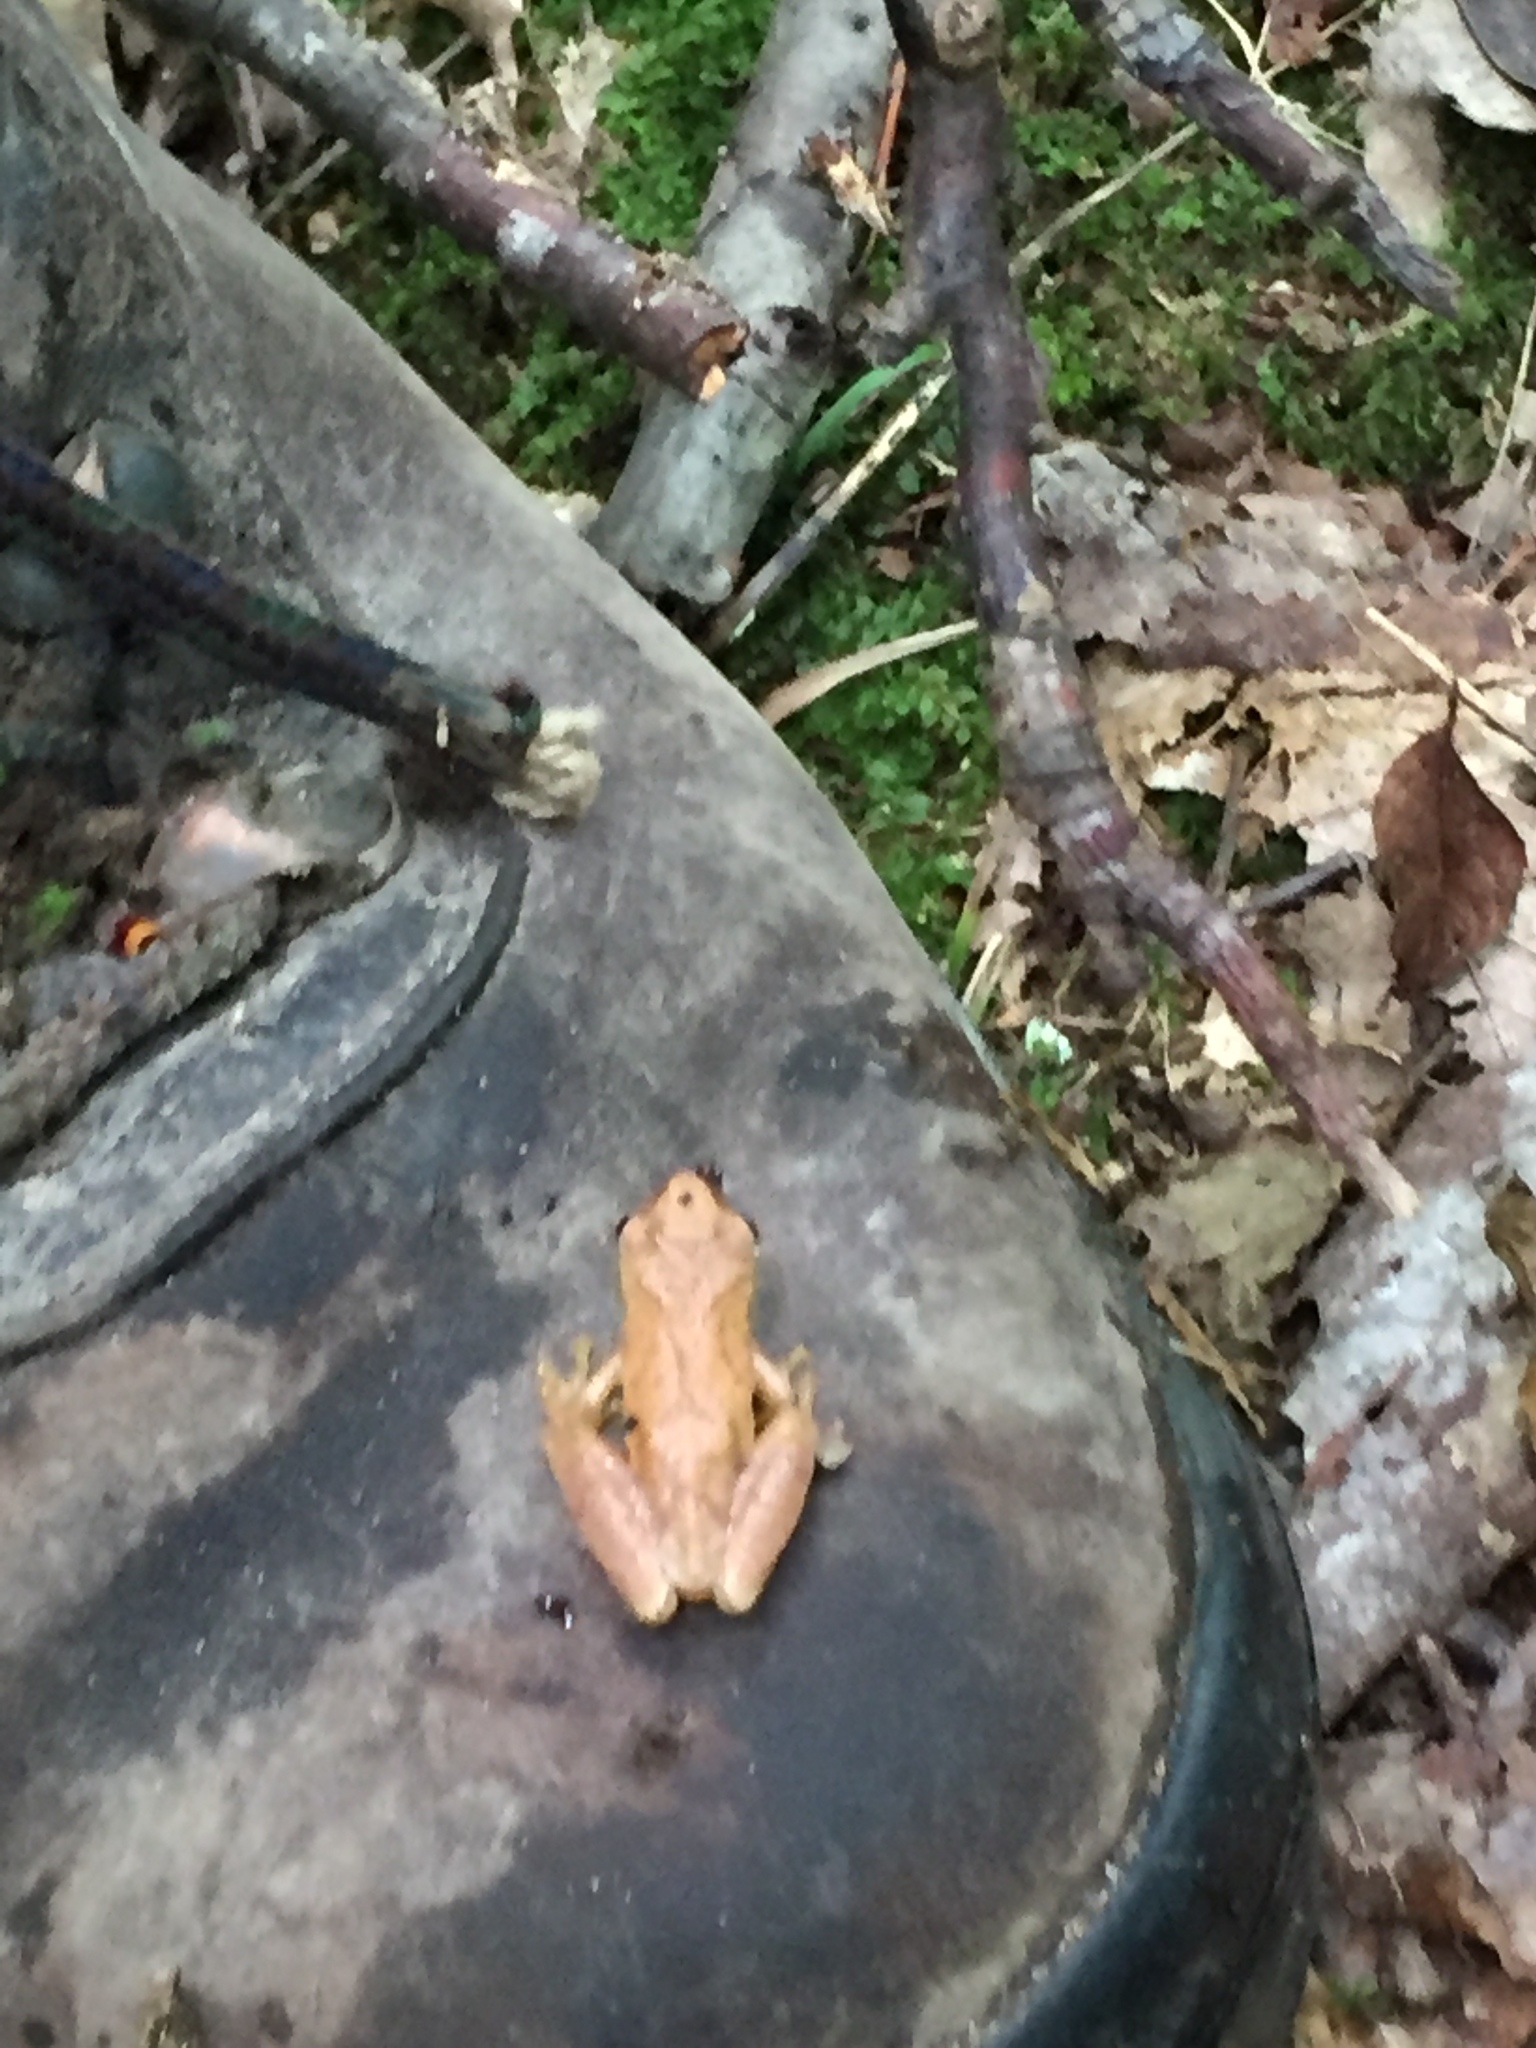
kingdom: Animalia
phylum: Chordata
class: Amphibia
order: Anura
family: Hylidae
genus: Pseudacris
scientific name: Pseudacris crucifer
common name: Spring peeper
